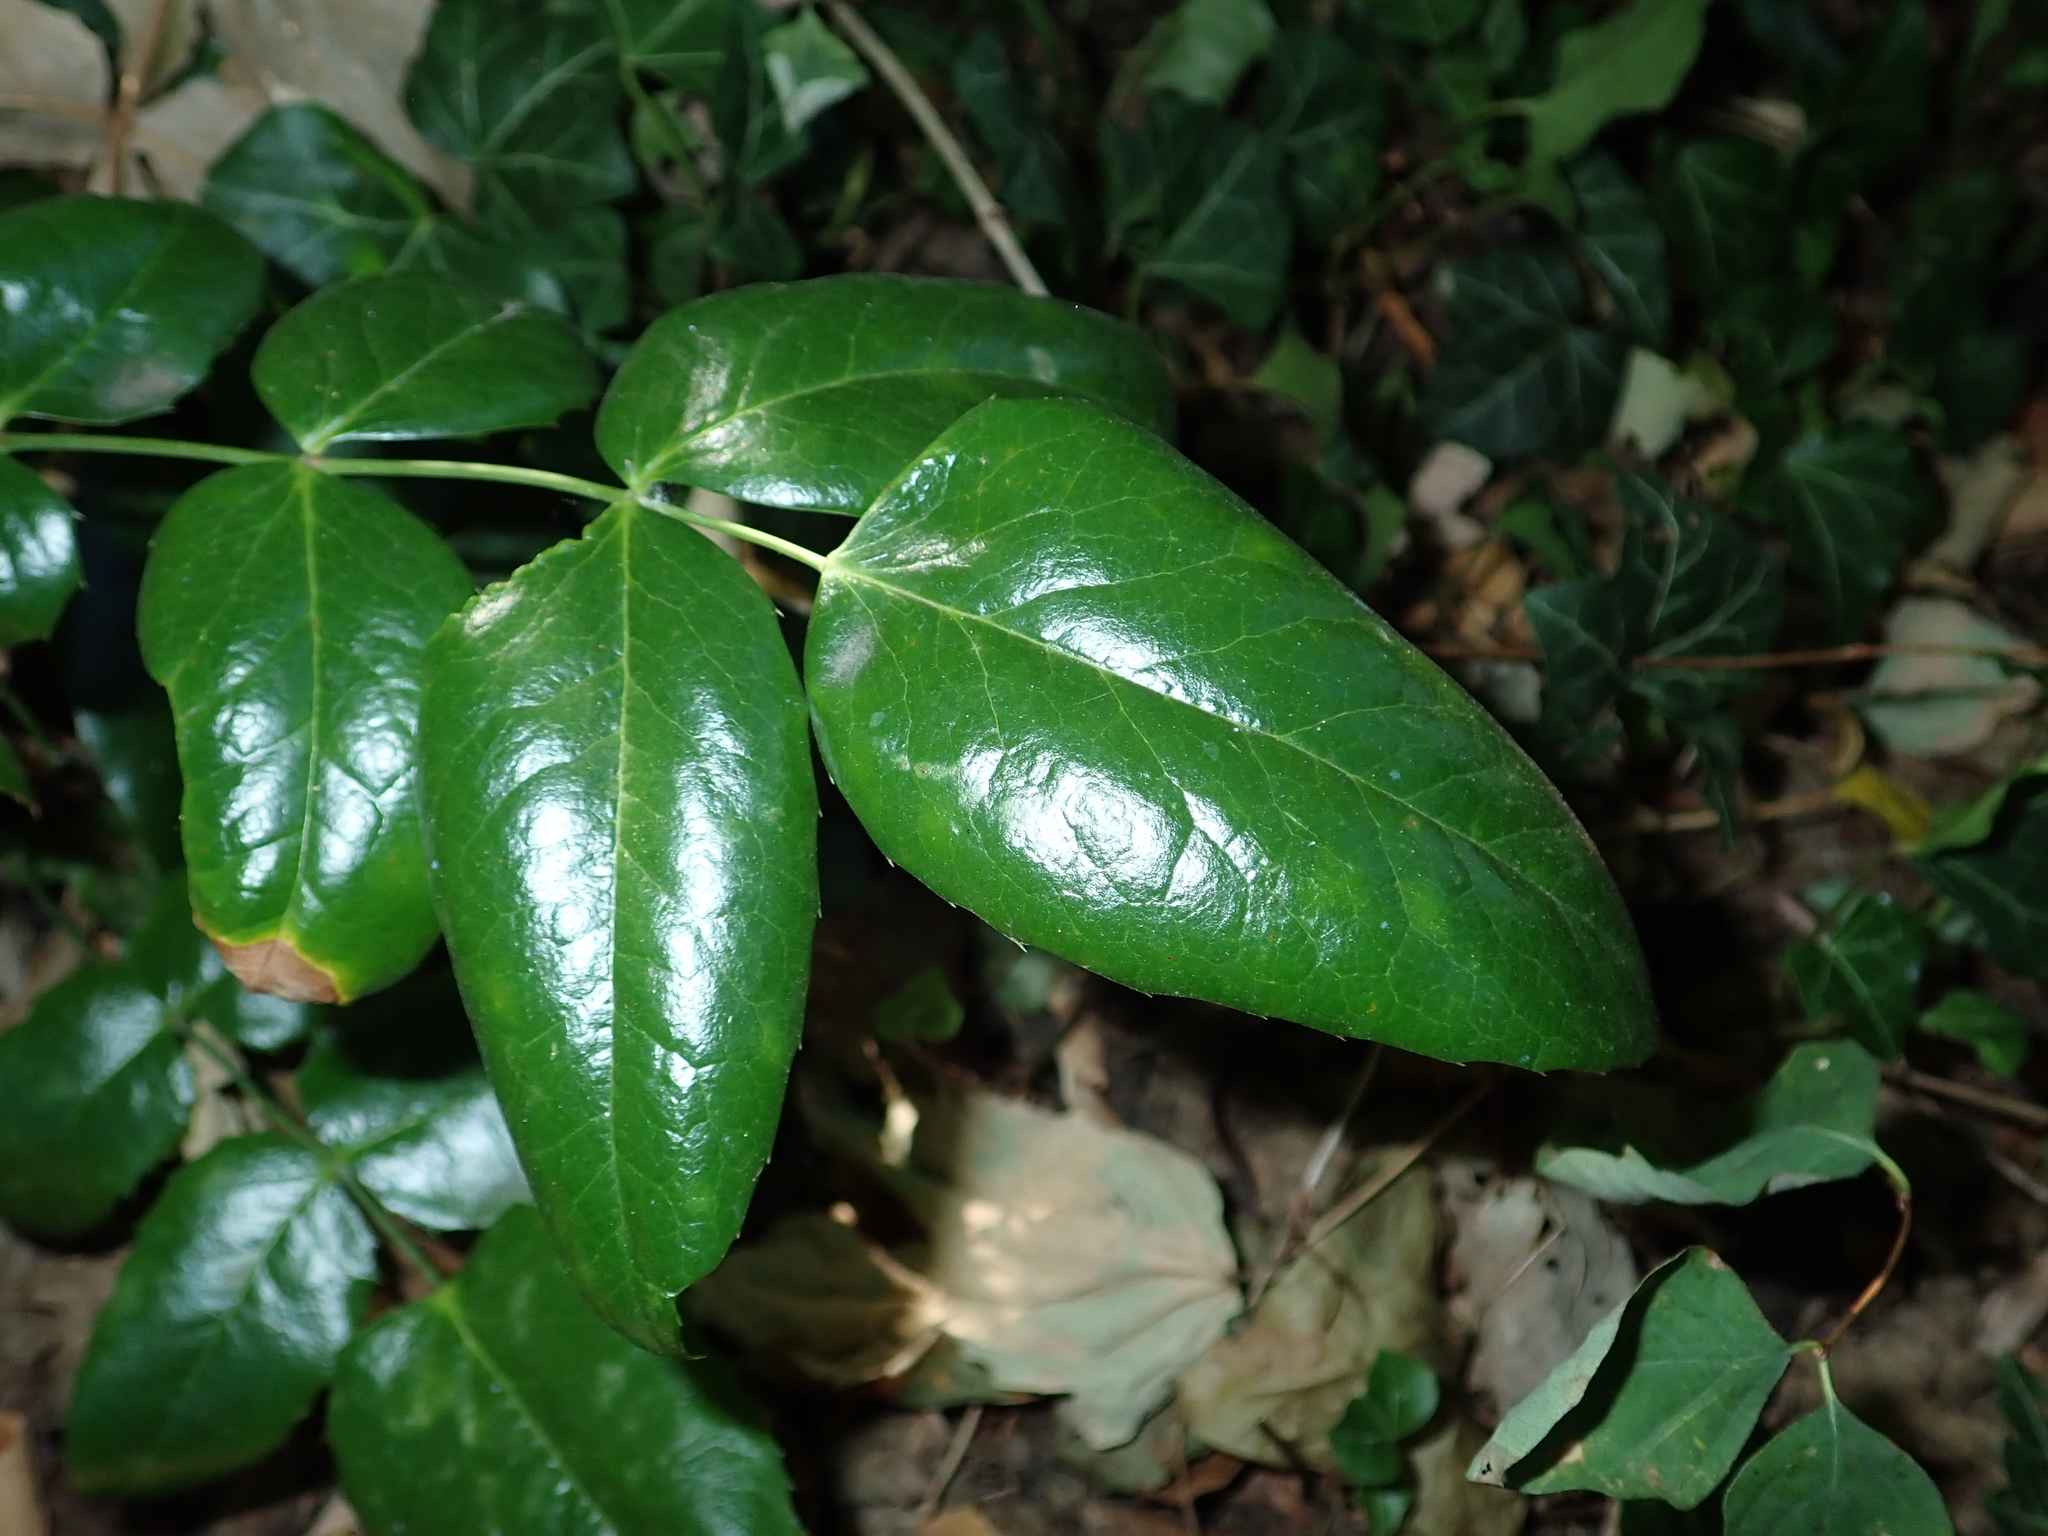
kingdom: Plantae
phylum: Tracheophyta
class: Magnoliopsida
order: Ranunculales
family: Berberidaceae
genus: Mahonia
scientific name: Mahonia aquifolium
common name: Oregon-grape
